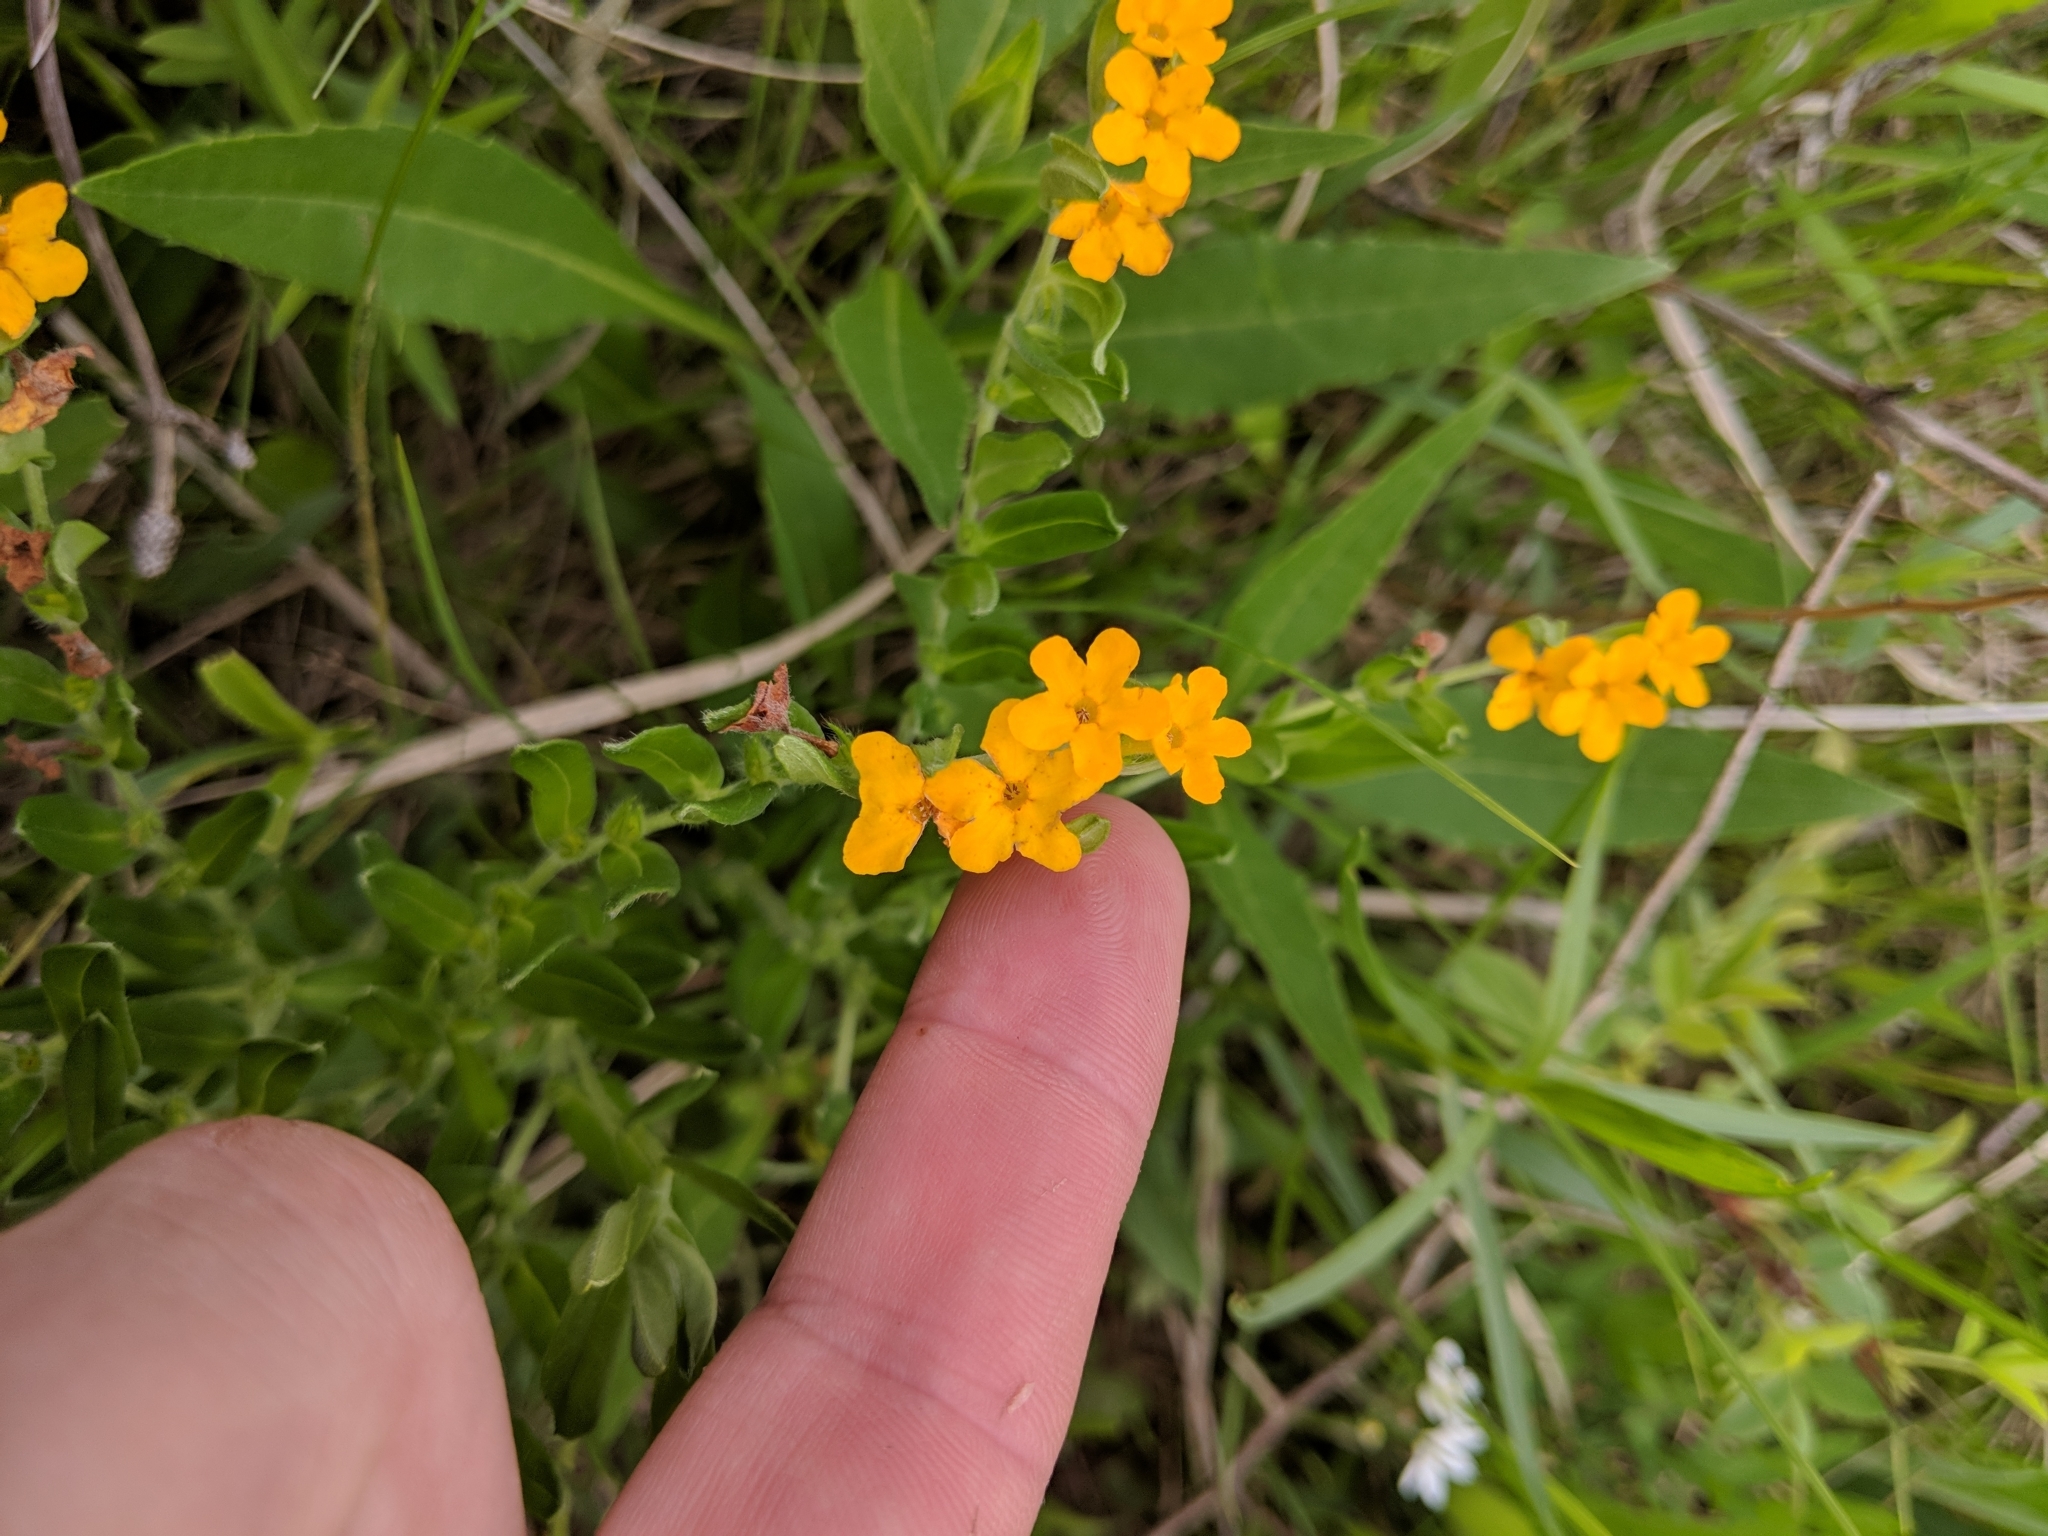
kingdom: Plantae
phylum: Tracheophyta
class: Magnoliopsida
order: Boraginales
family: Boraginaceae
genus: Lithospermum
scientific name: Lithospermum canescens
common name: Hoary puccoon
